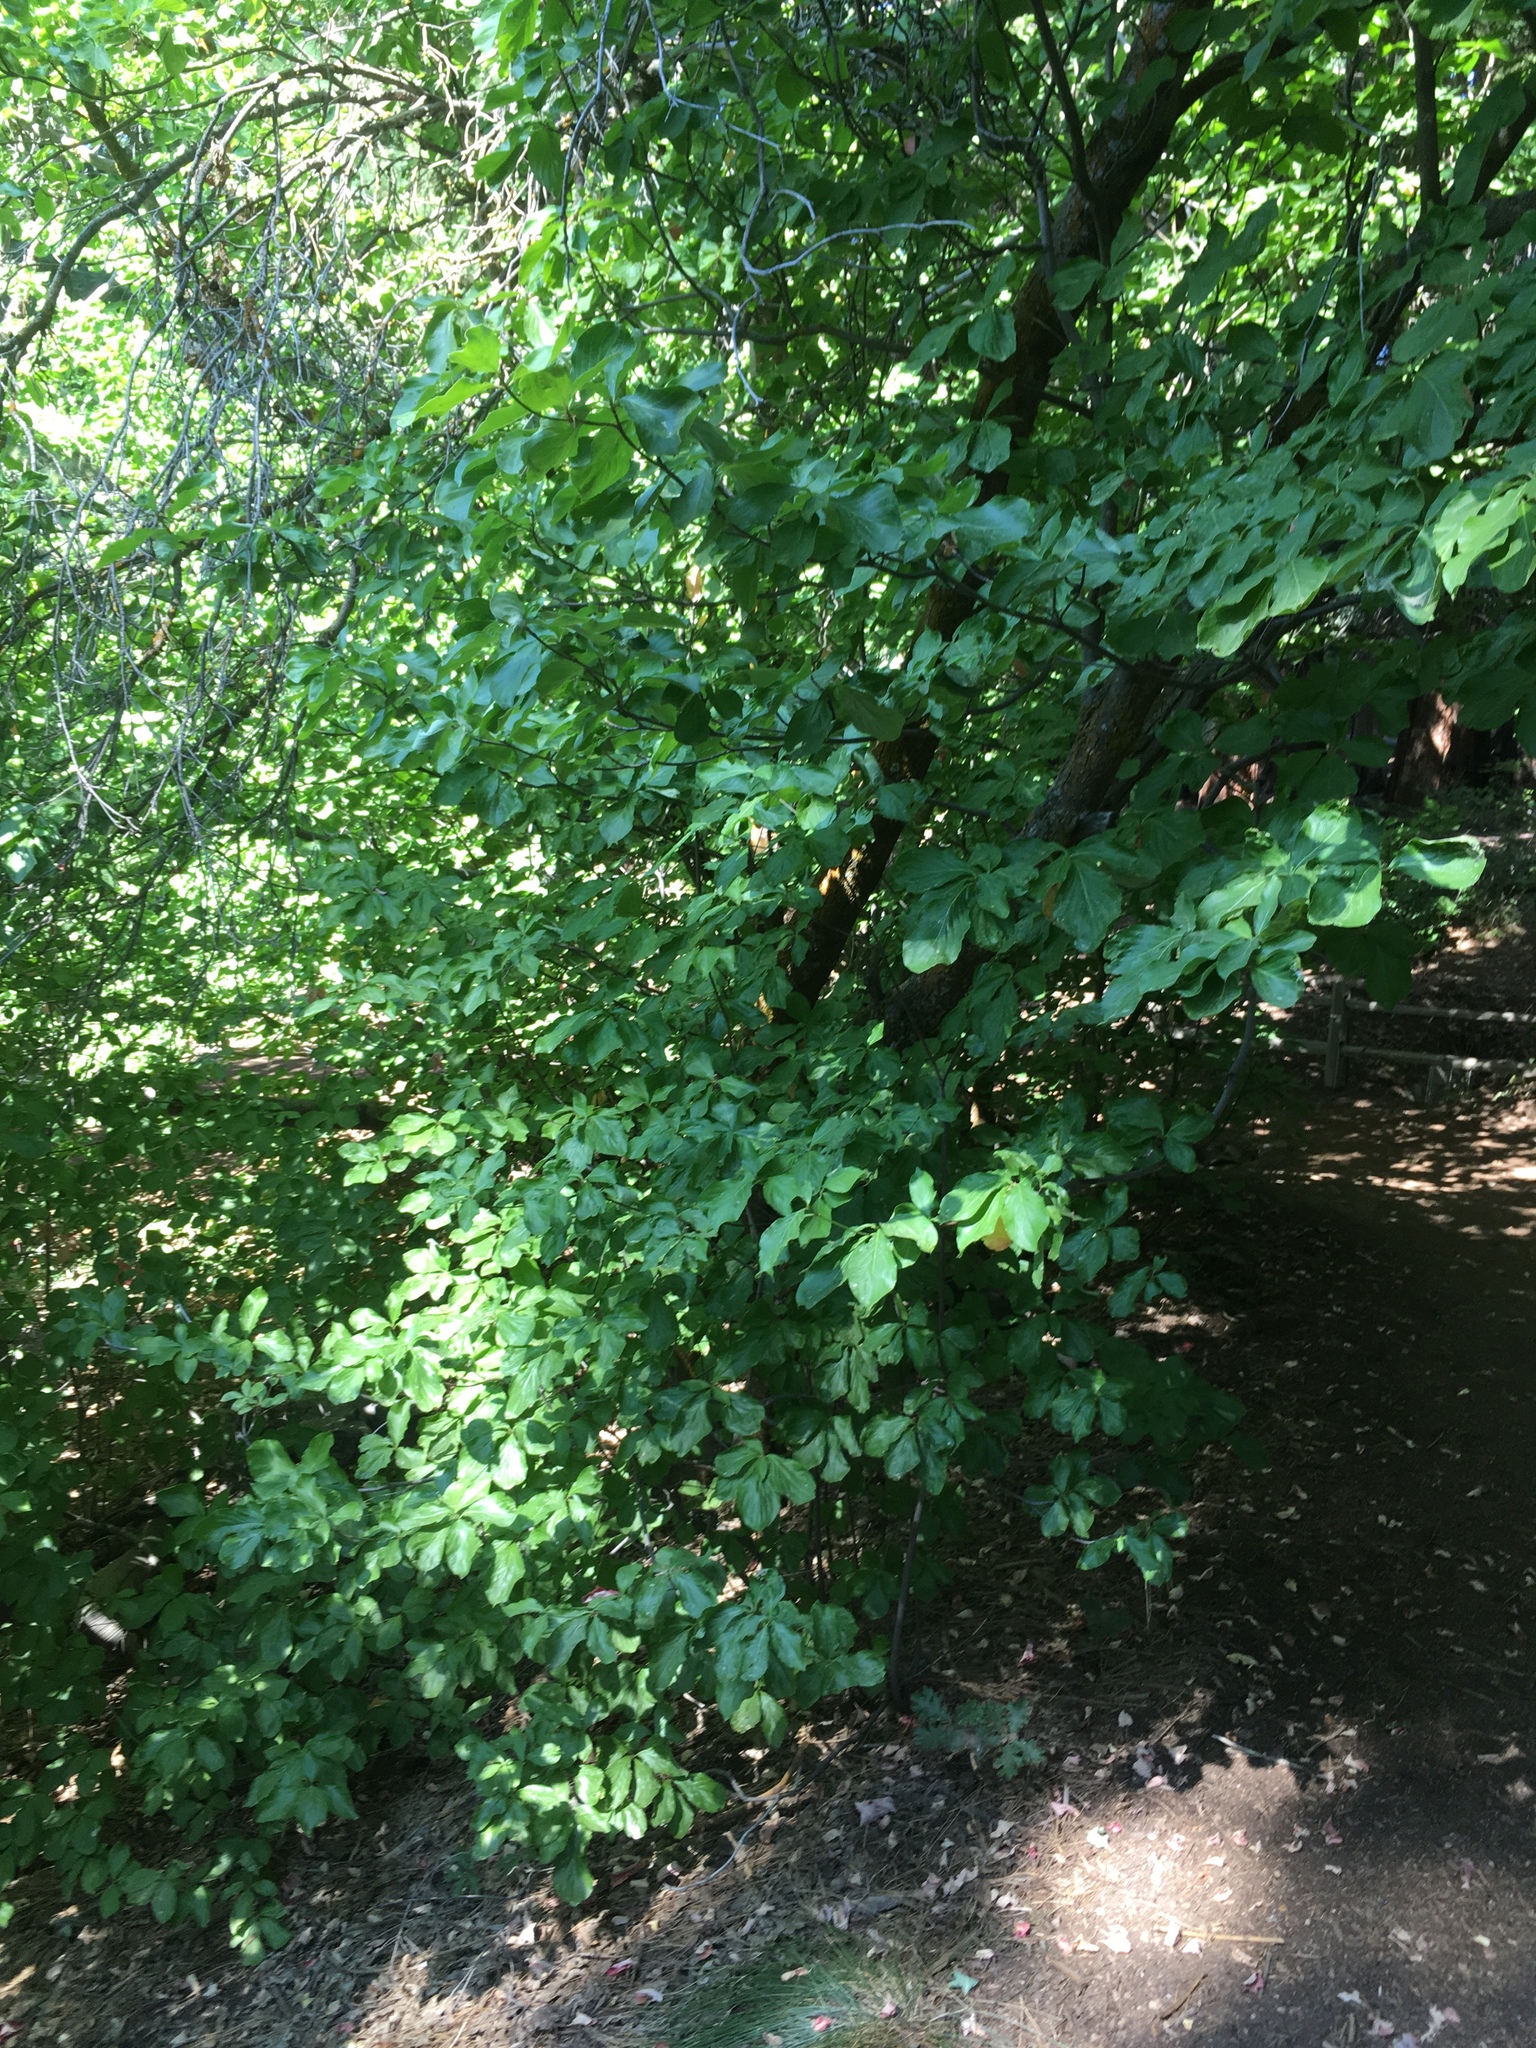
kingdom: Plantae
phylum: Tracheophyta
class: Magnoliopsida
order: Cornales
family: Cornaceae
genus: Cornus
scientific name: Cornus nuttallii
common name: Pacific dogwood
